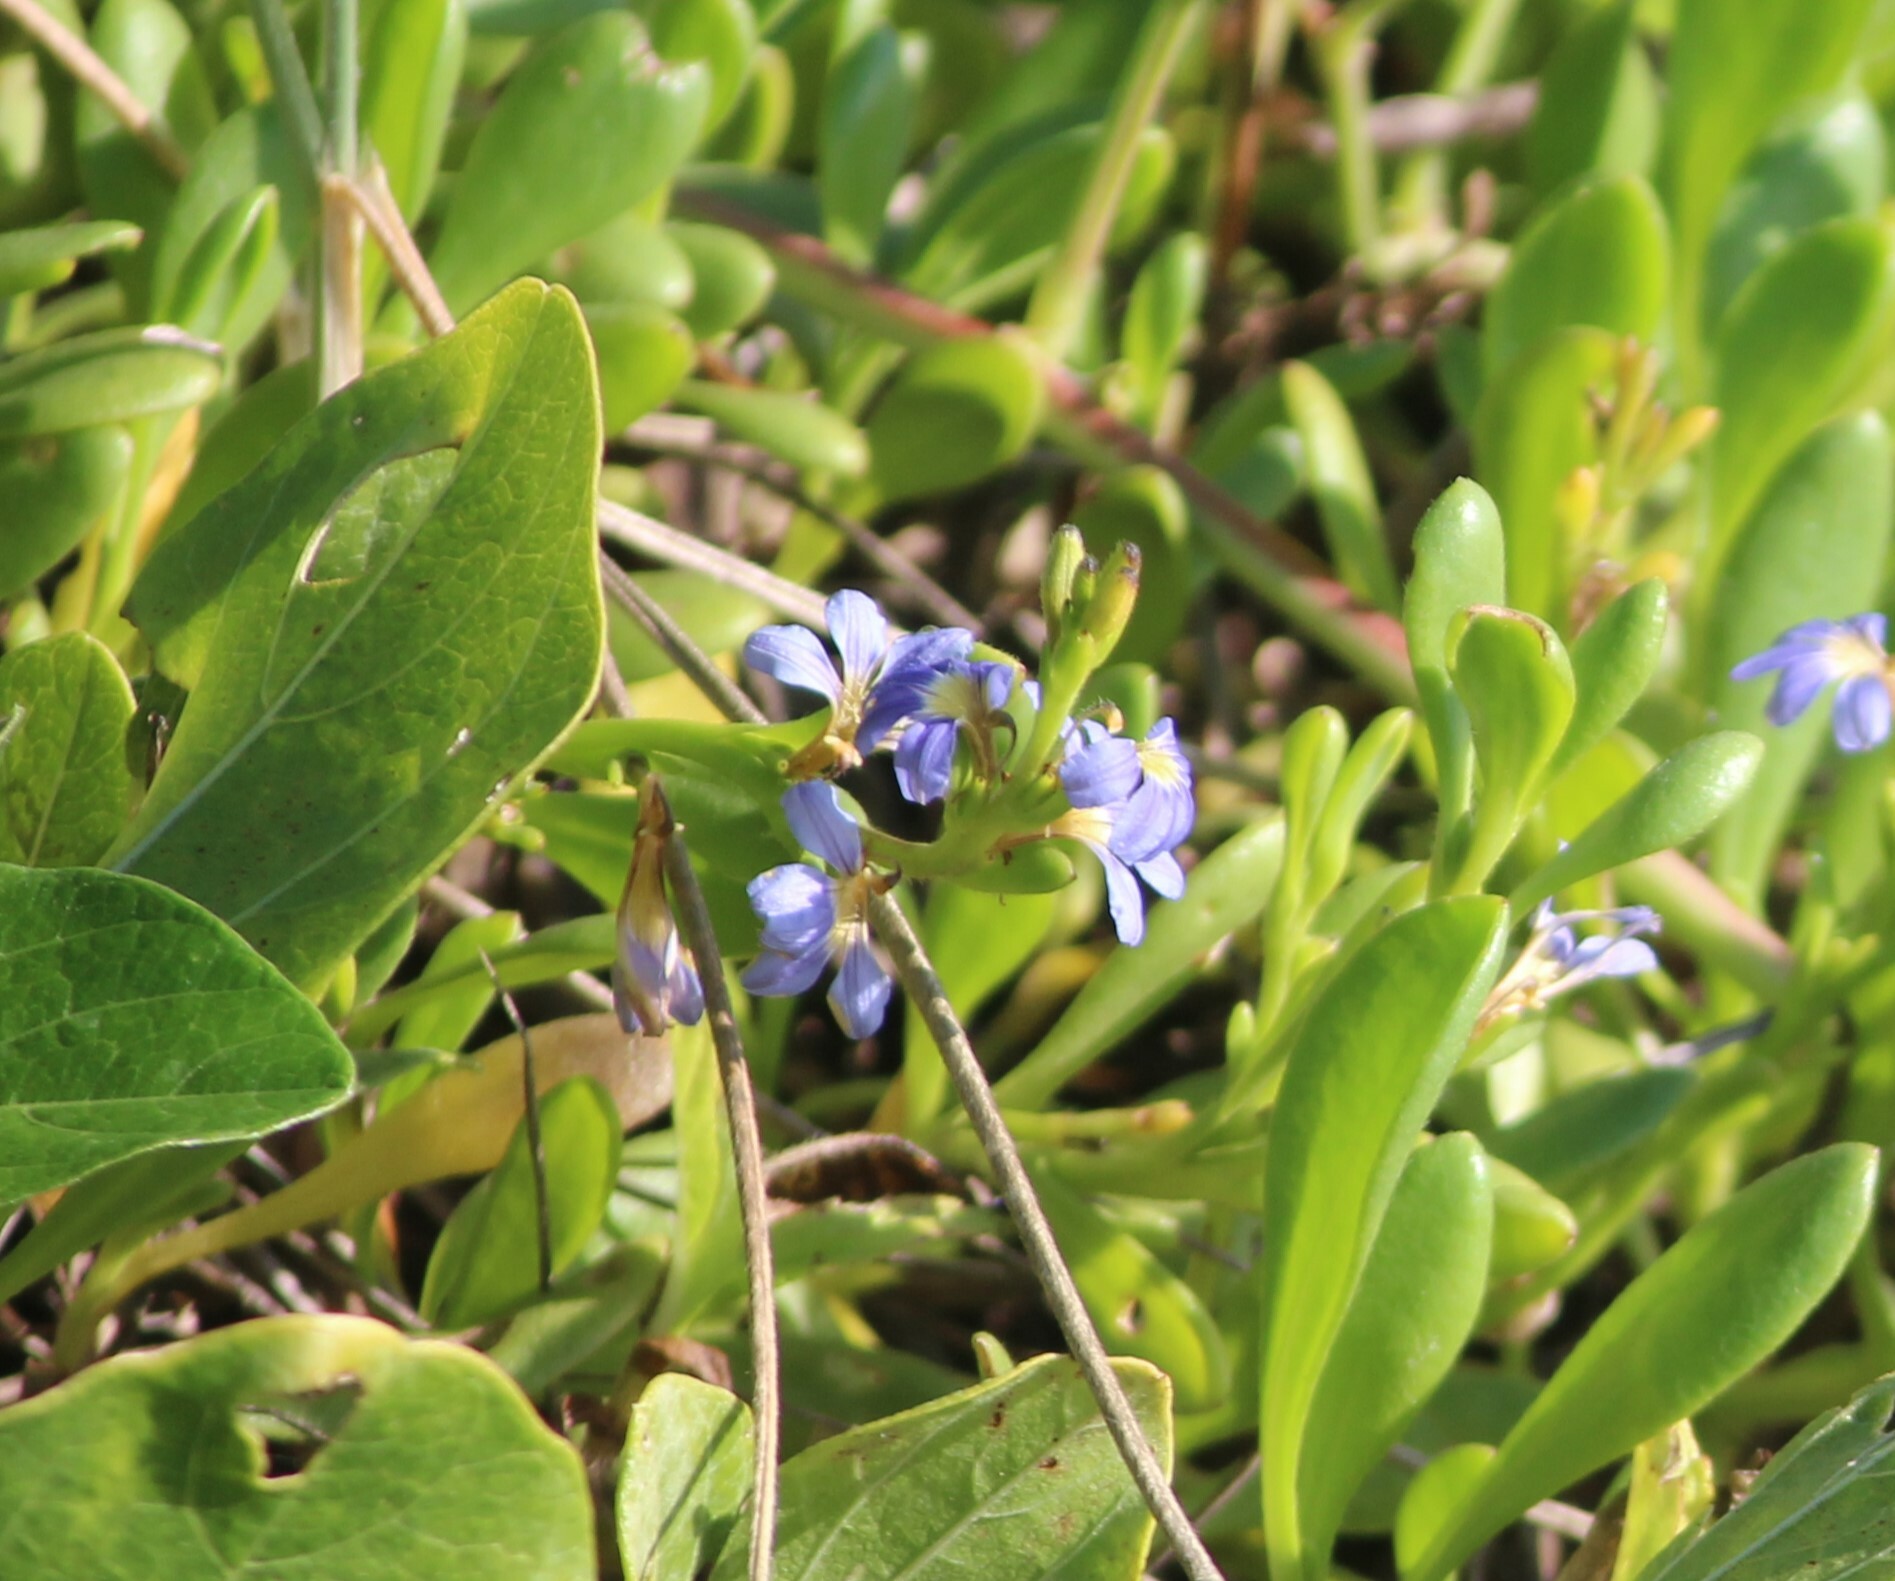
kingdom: Plantae
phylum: Tracheophyta
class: Magnoliopsida
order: Asterales
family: Goodeniaceae
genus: Scaevola
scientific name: Scaevola calendulacea
